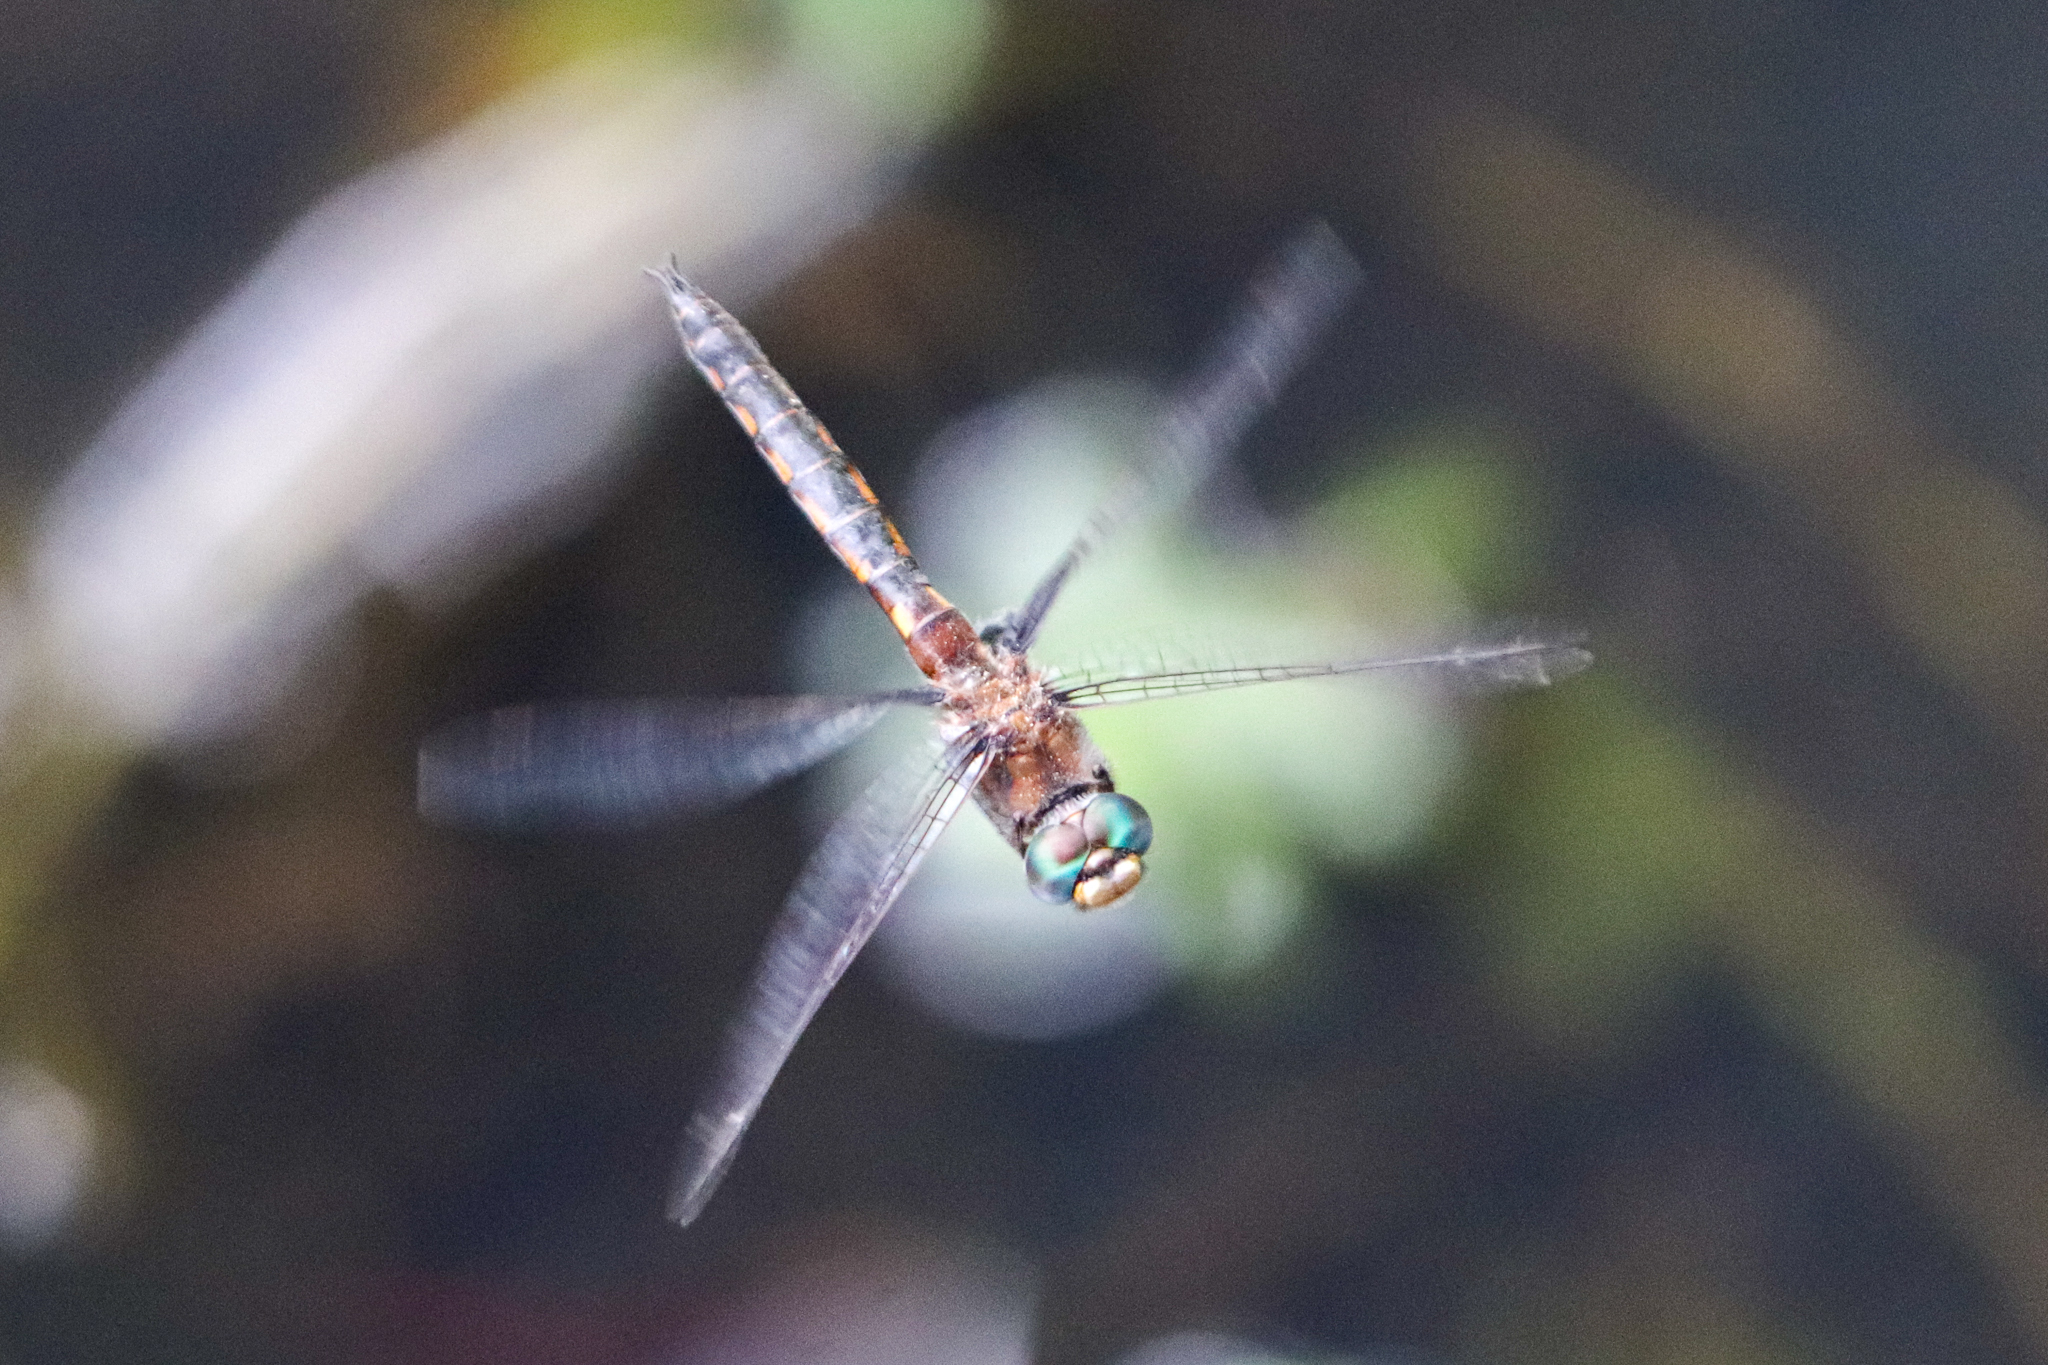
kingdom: Animalia
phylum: Arthropoda
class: Insecta
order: Odonata
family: Corduliidae
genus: Epitheca
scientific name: Epitheca cynosura
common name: Common baskettail
